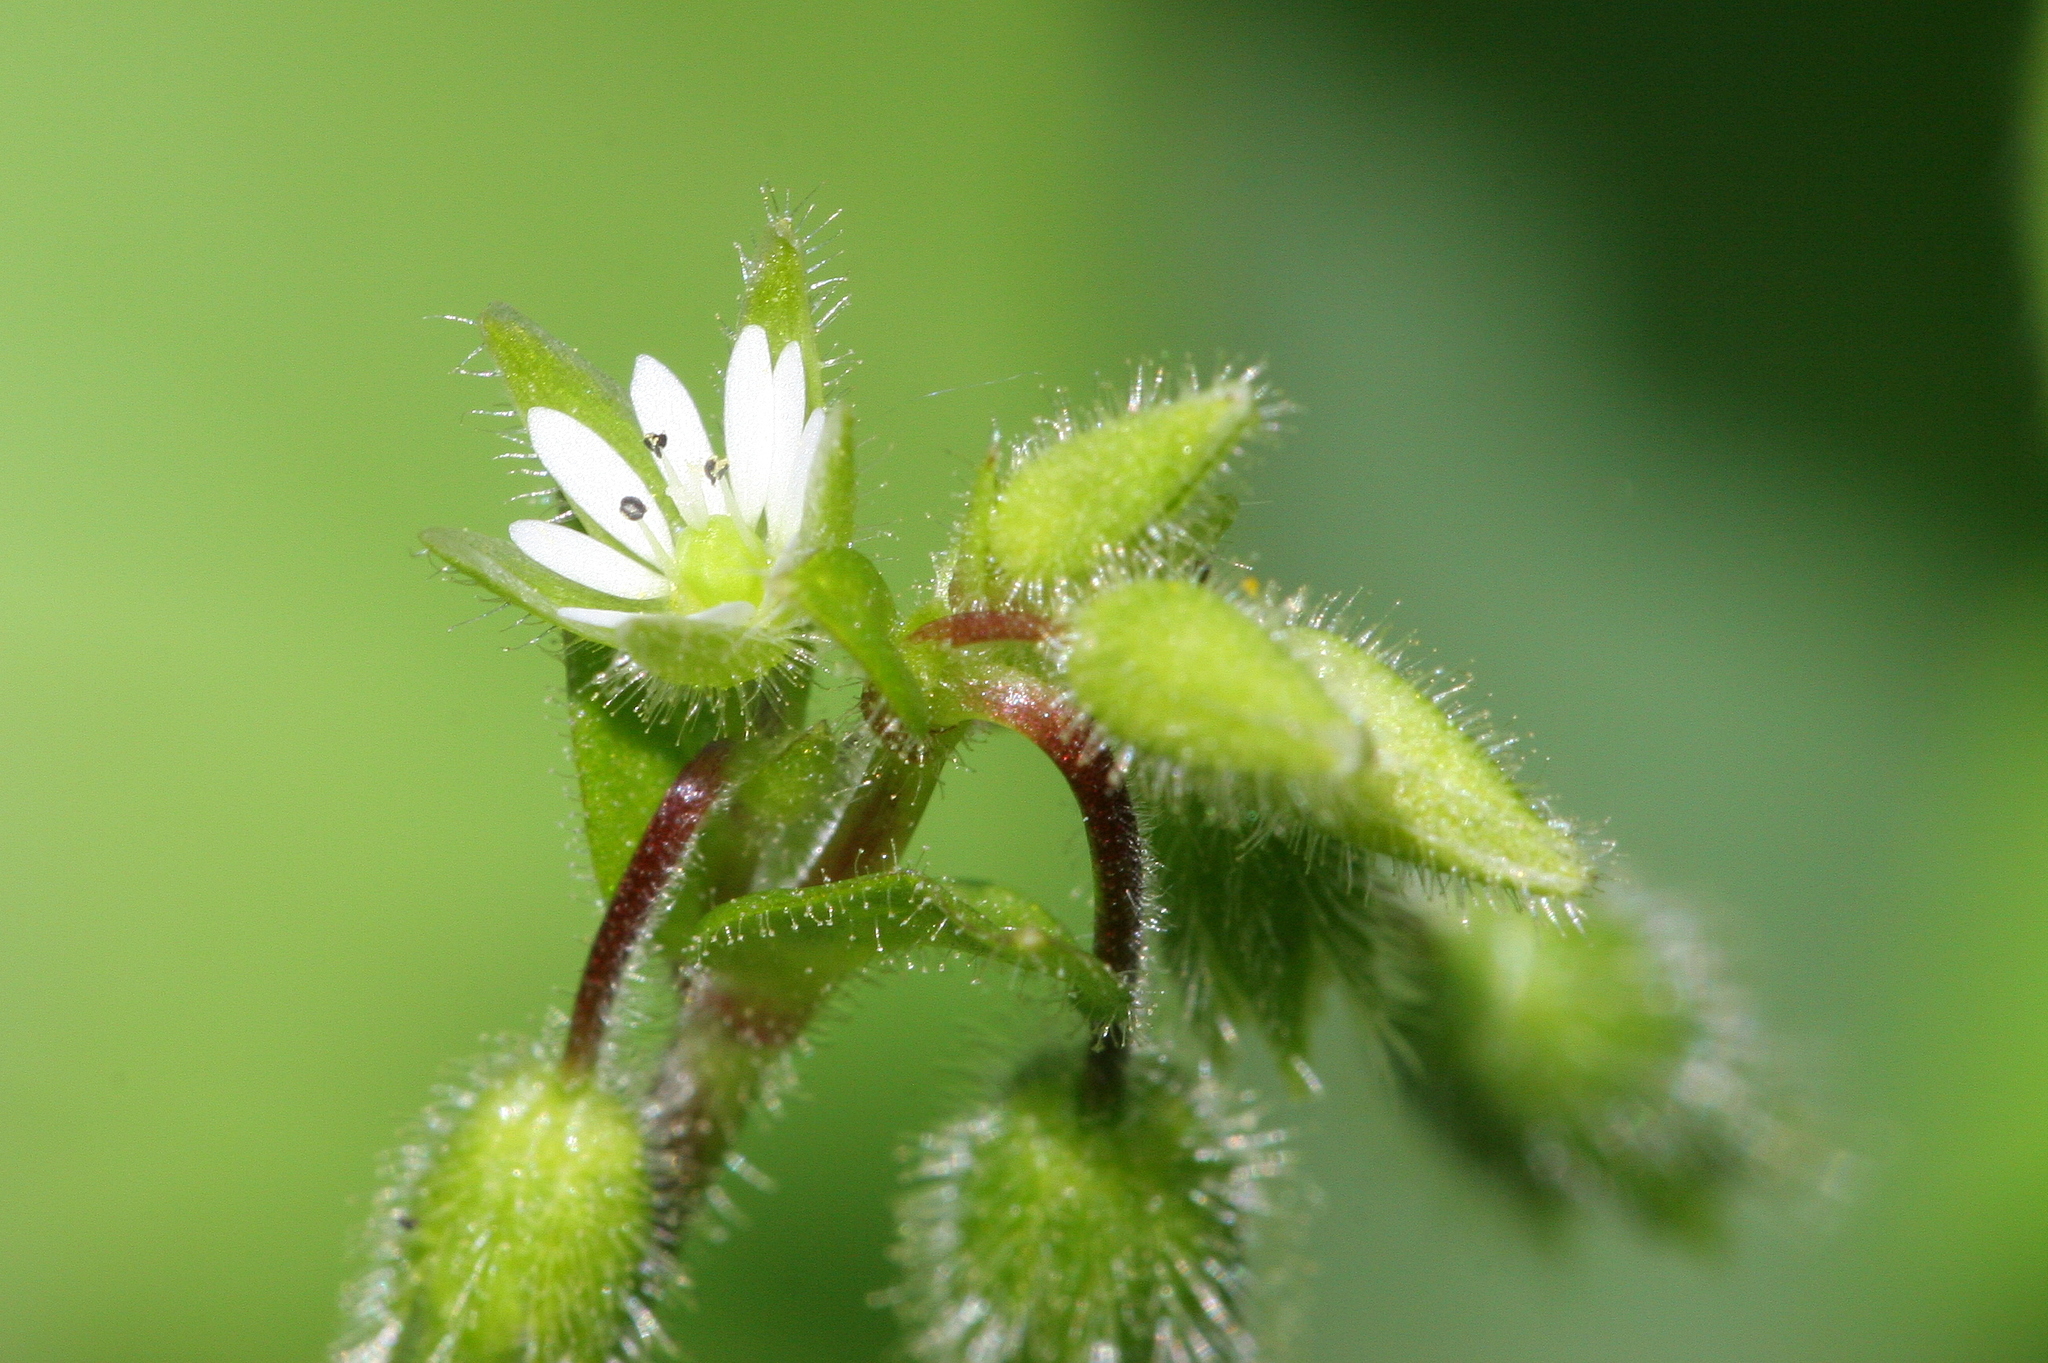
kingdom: Plantae
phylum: Tracheophyta
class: Magnoliopsida
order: Caryophyllales
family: Caryophyllaceae
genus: Stellaria
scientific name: Stellaria media
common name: Common chickweed
